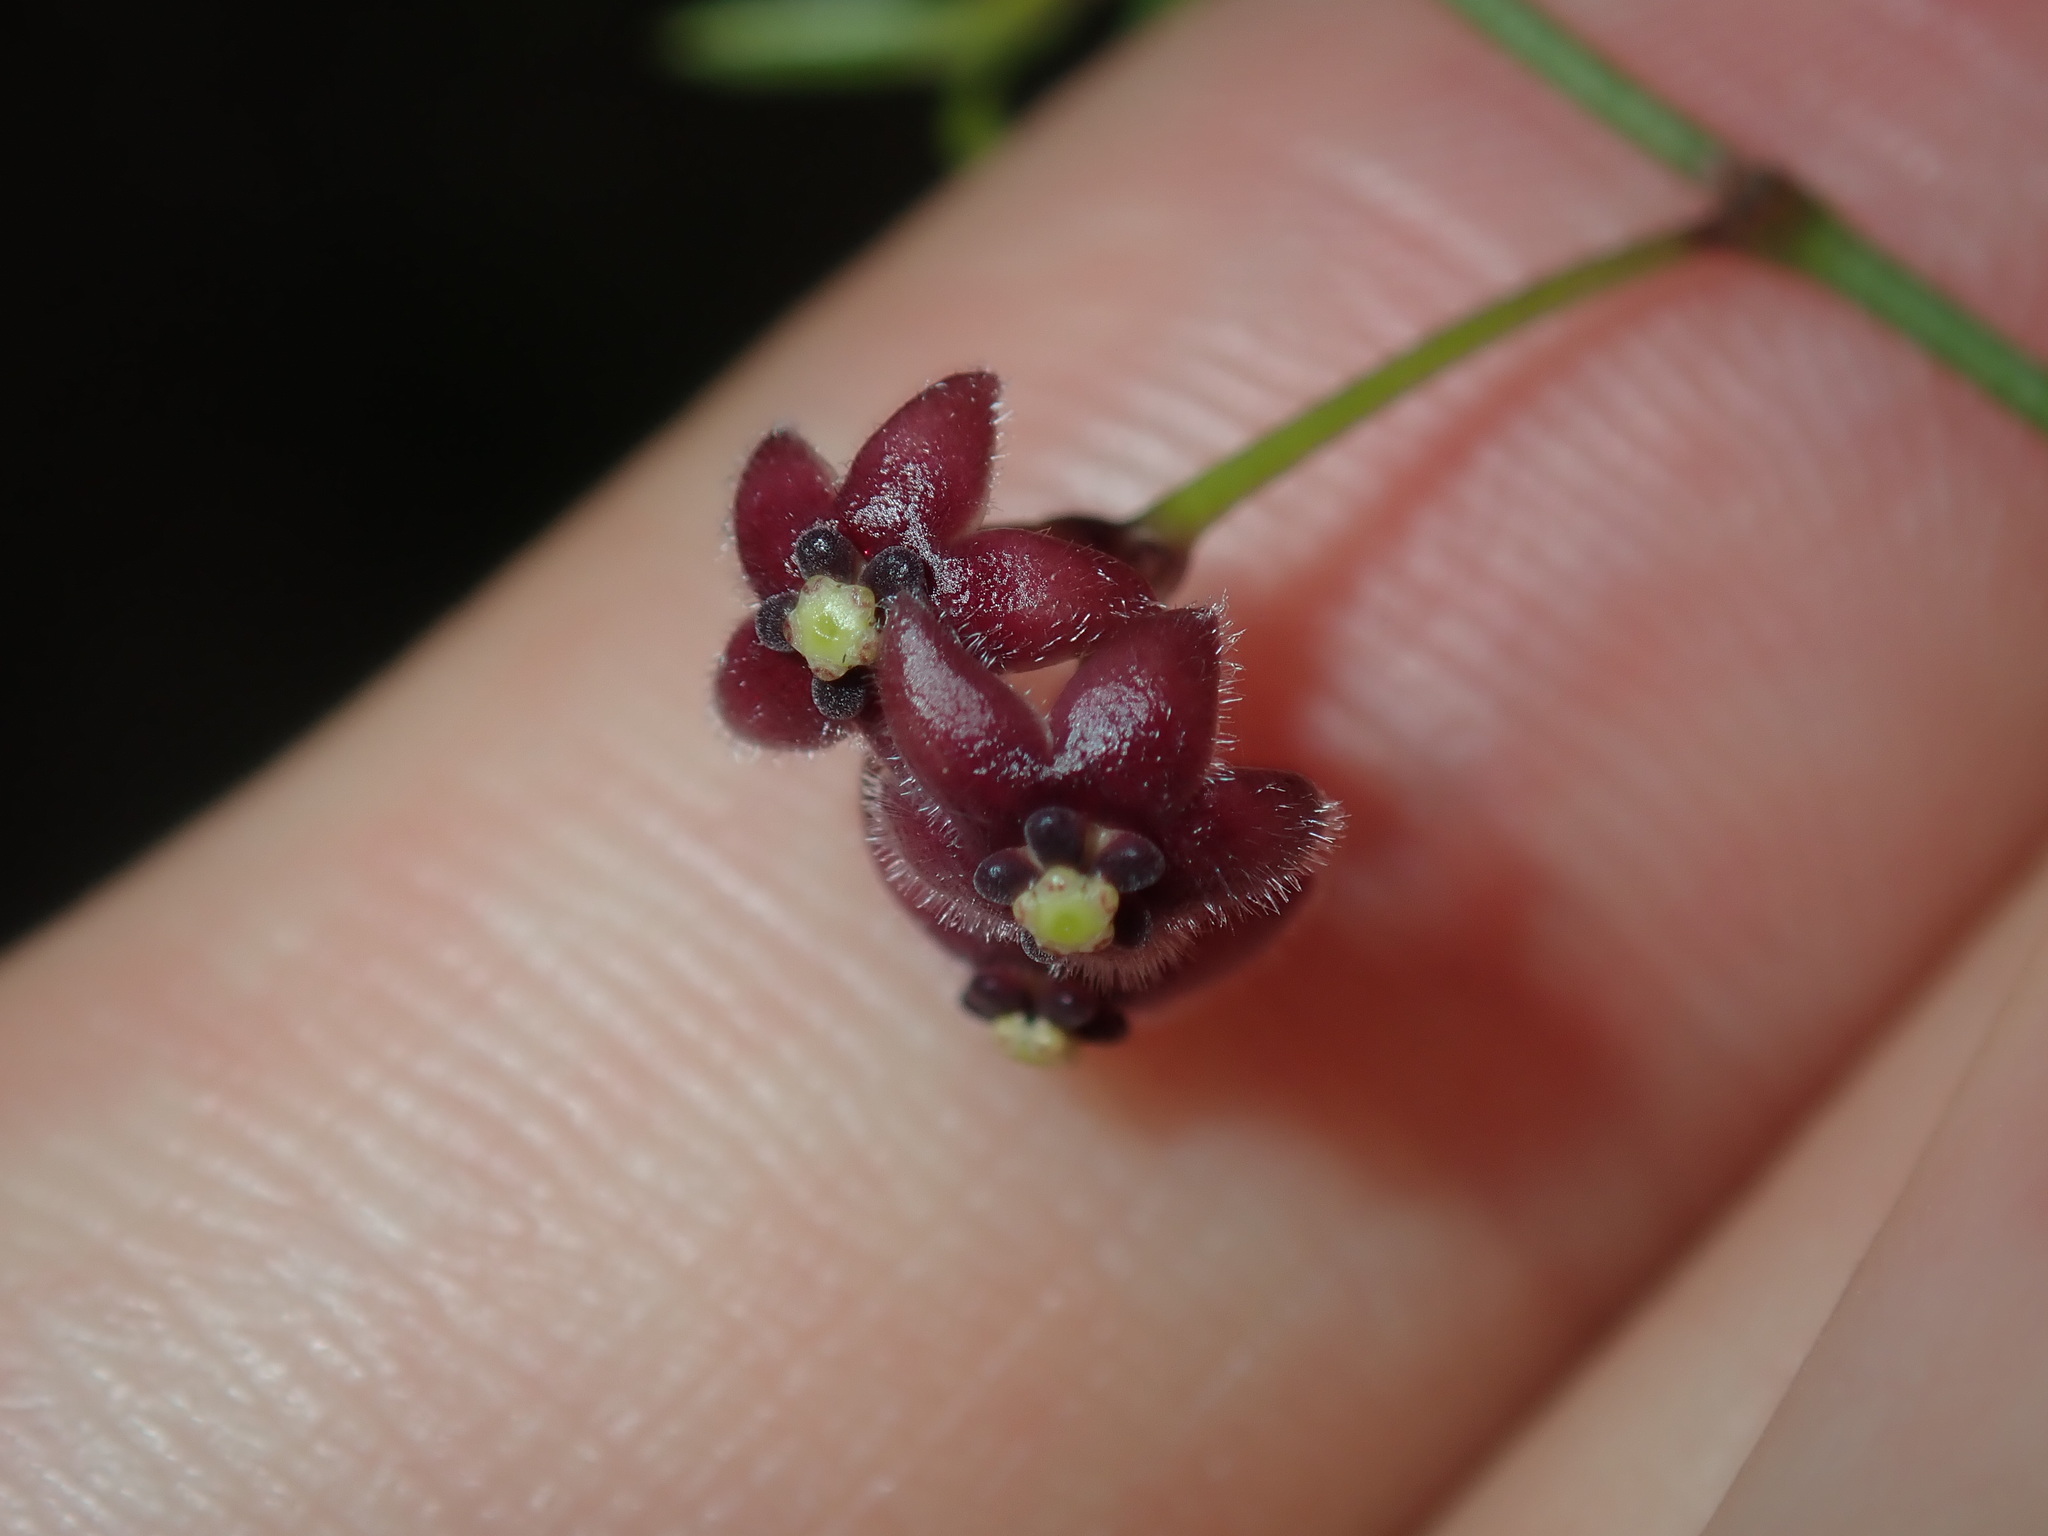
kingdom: Plantae
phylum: Tracheophyta
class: Magnoliopsida
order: Gentianales
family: Apocynaceae
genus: Vincetoxicum
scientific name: Vincetoxicum barbatum
